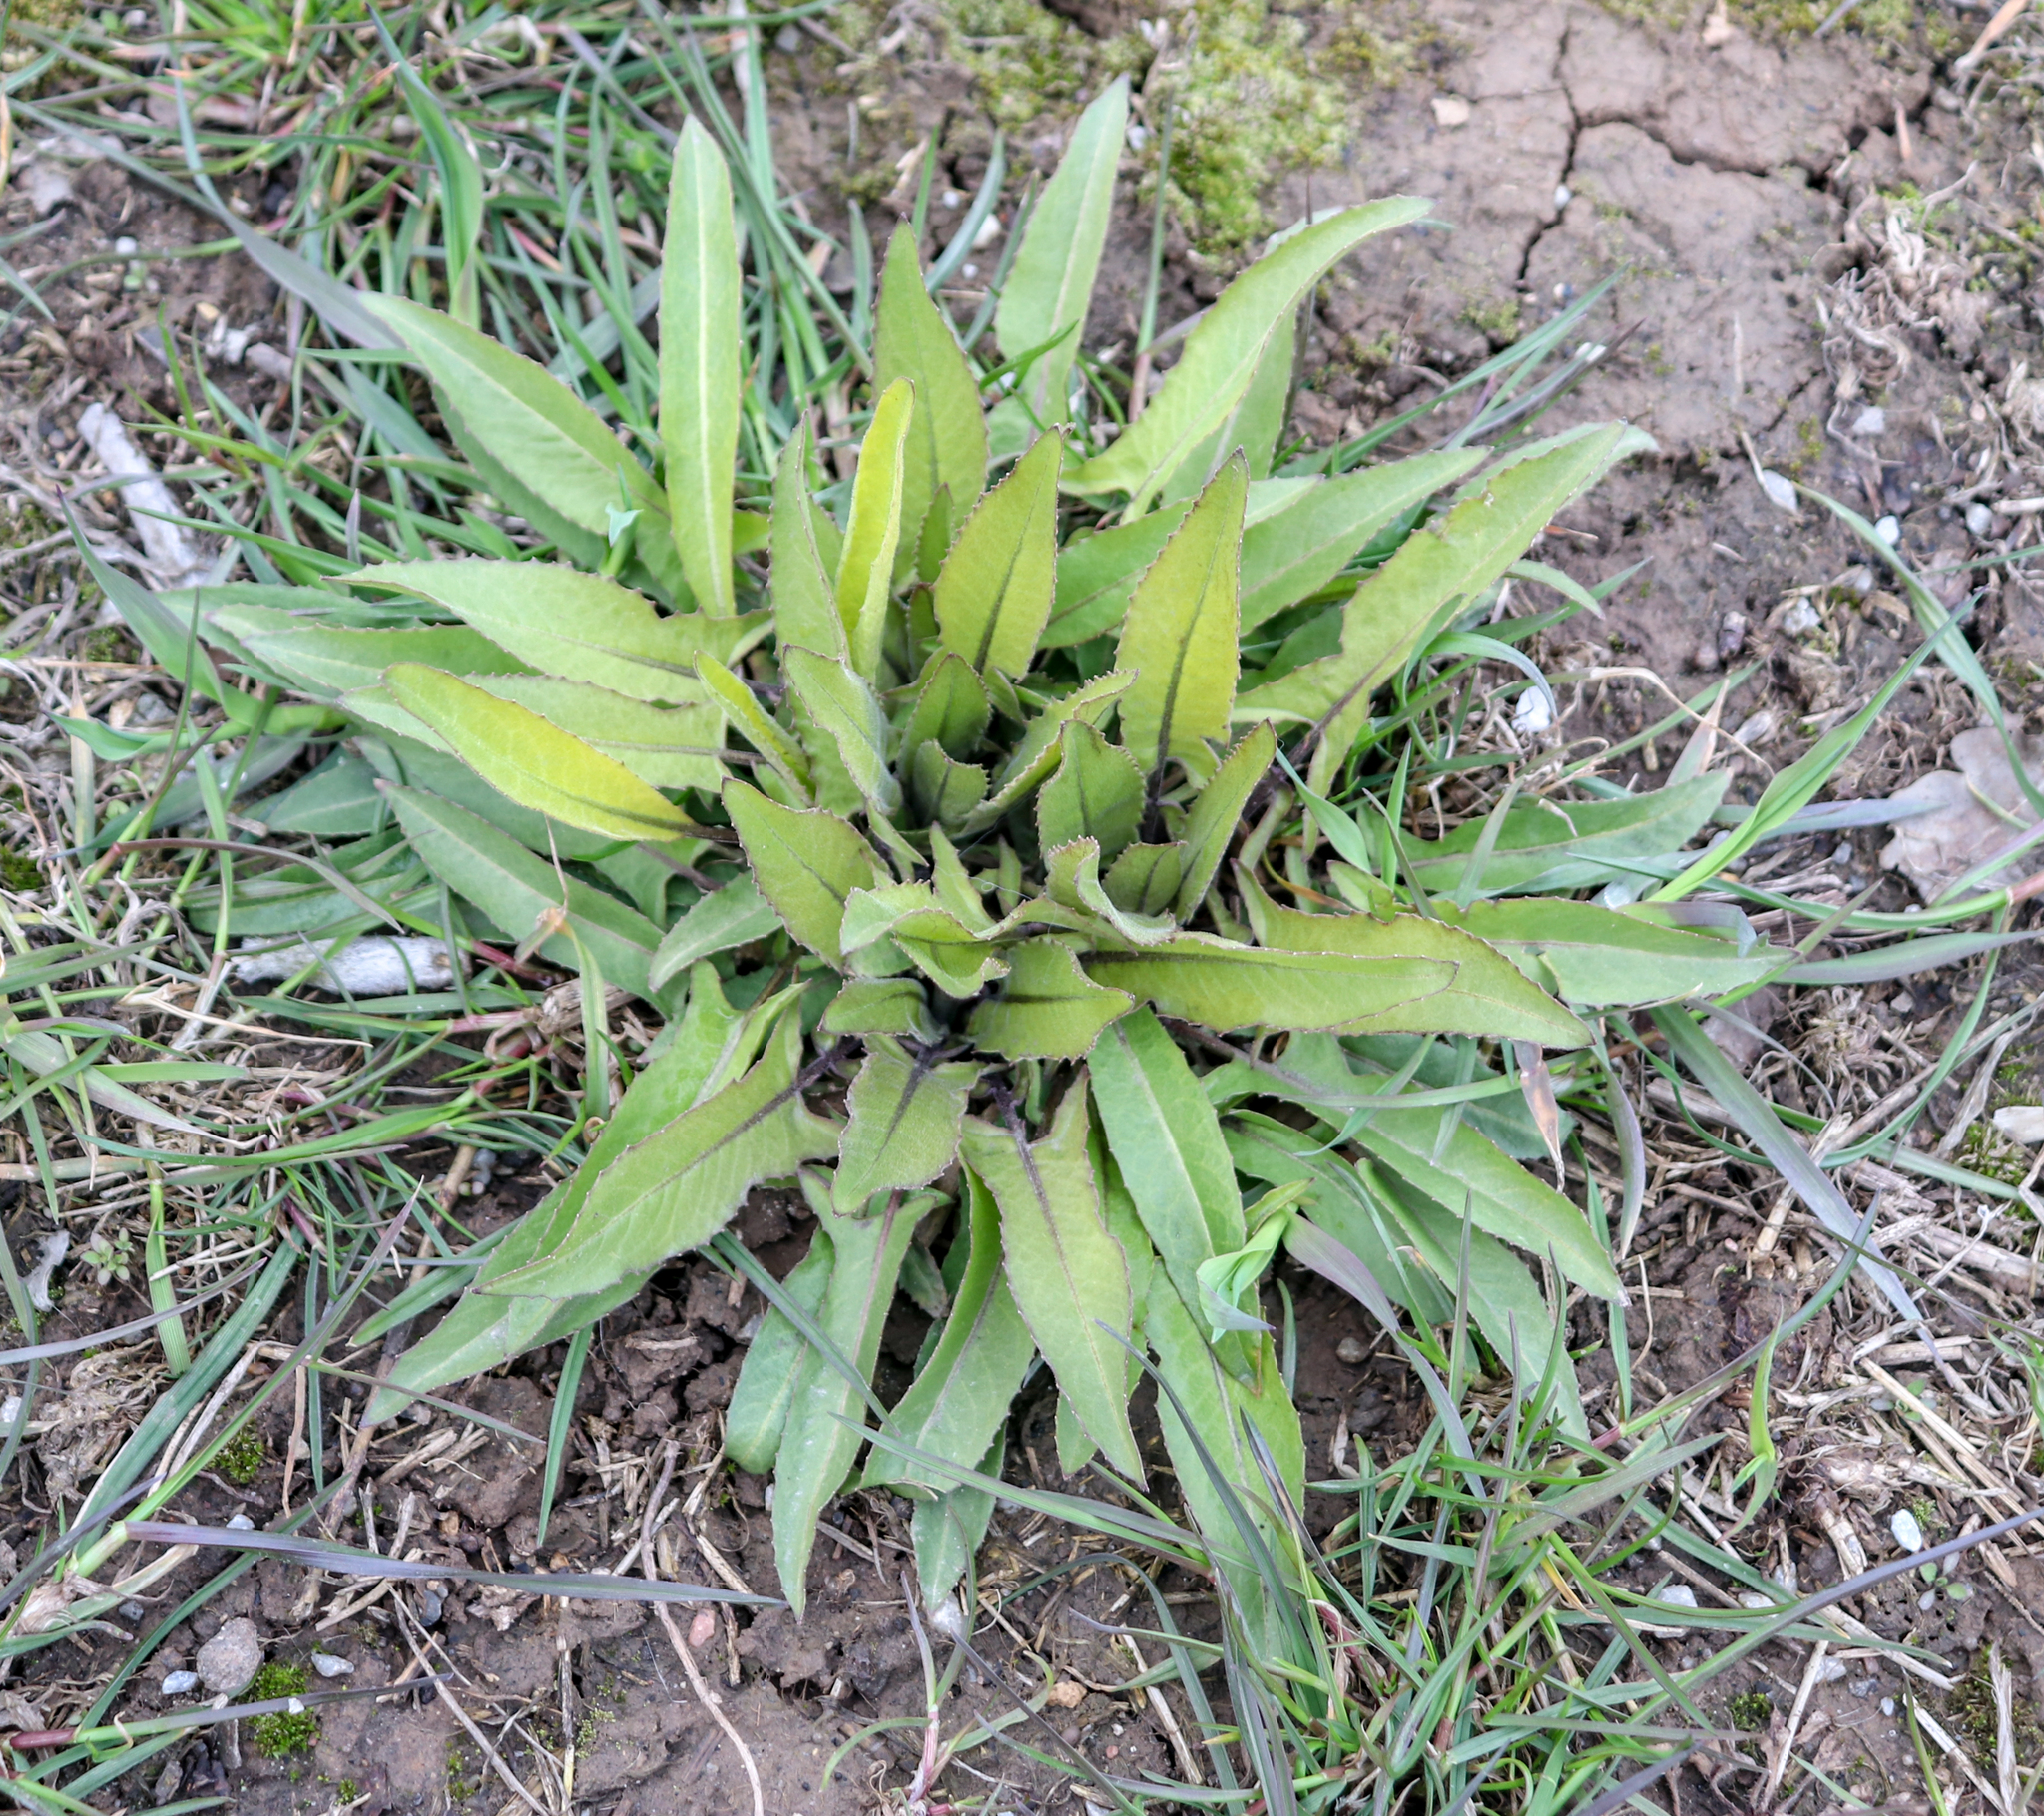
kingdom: Plantae
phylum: Tracheophyta
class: Magnoliopsida
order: Brassicales
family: Brassicaceae
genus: Bunias
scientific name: Bunias orientalis
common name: Warty-cabbage
